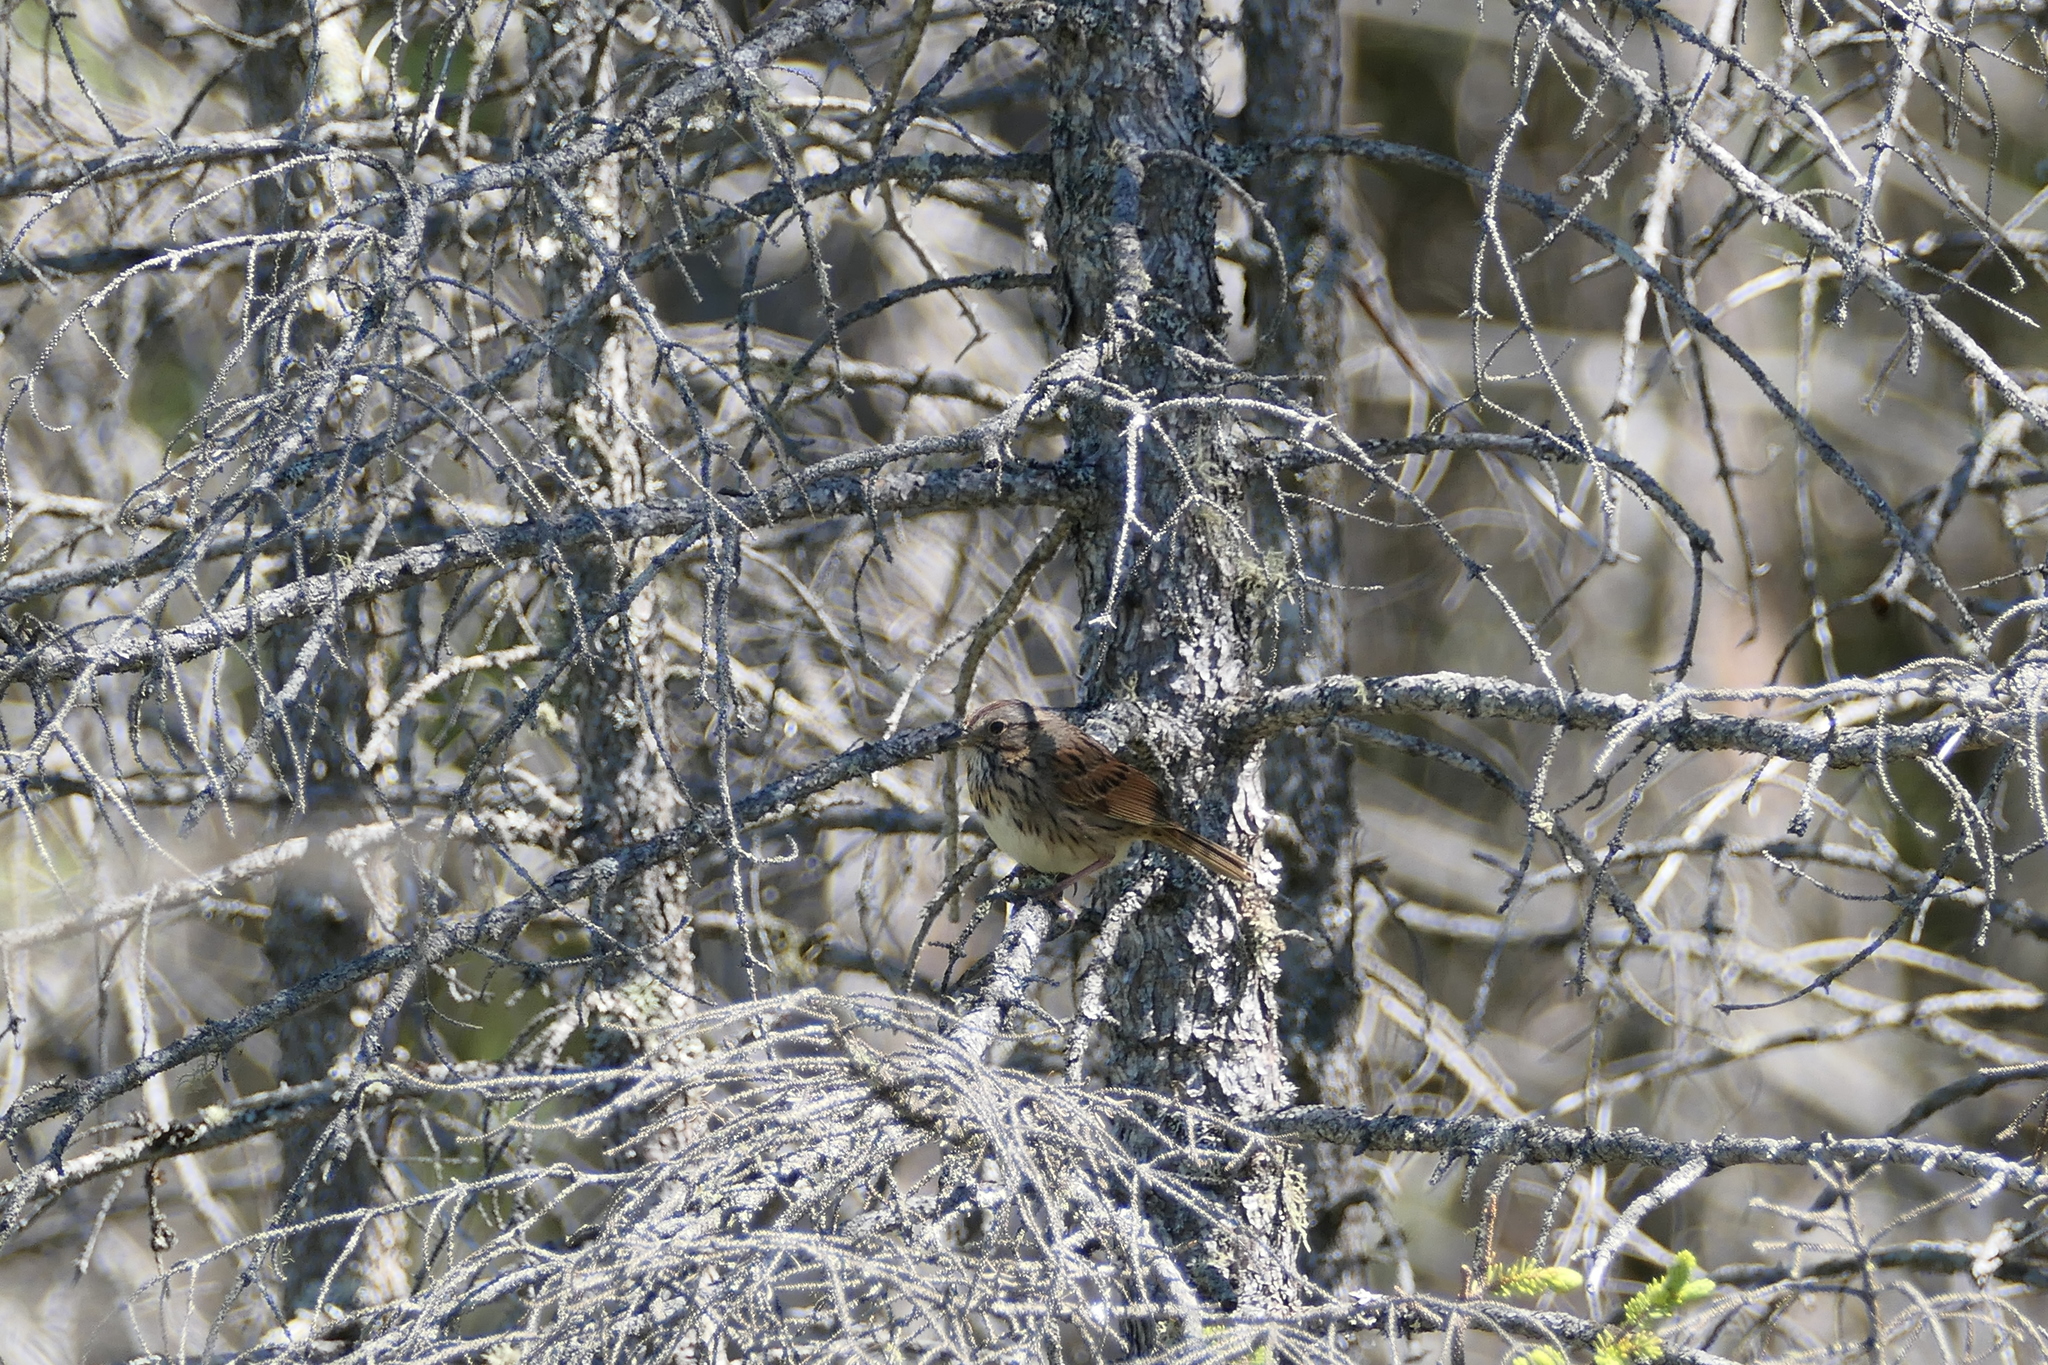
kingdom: Animalia
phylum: Chordata
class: Aves
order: Passeriformes
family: Passerellidae
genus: Melospiza
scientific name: Melospiza lincolnii
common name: Lincoln's sparrow
